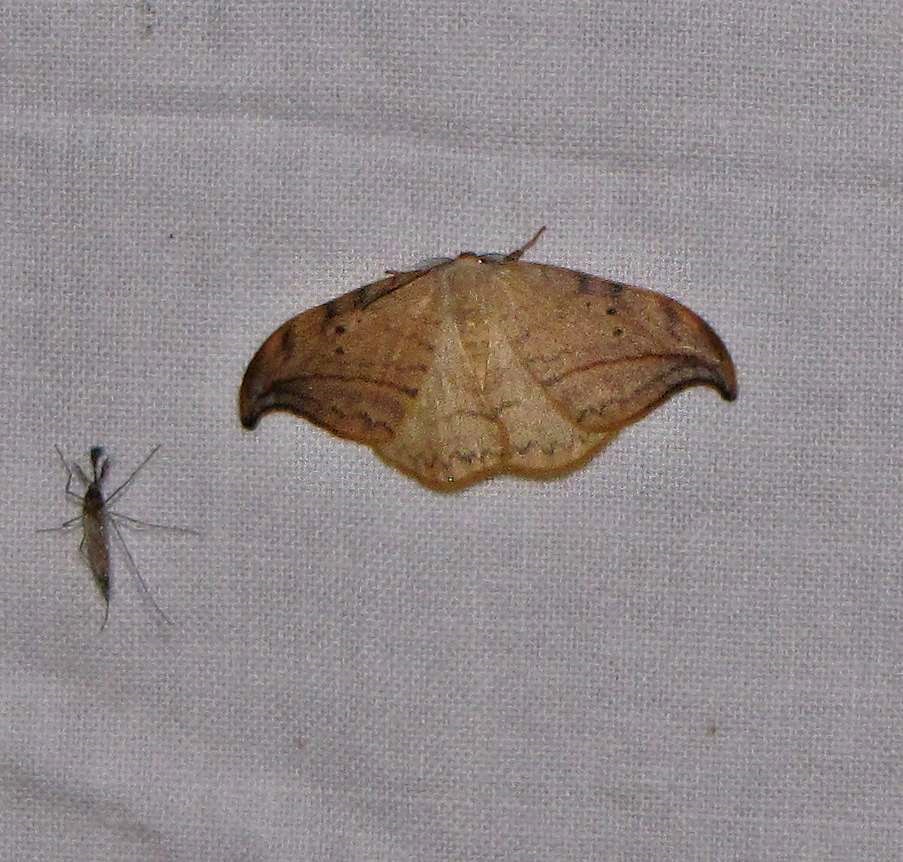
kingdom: Animalia
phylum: Arthropoda
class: Insecta
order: Lepidoptera
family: Drepanidae
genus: Drepana
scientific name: Drepana arcuata
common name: Arched hooktip moth
